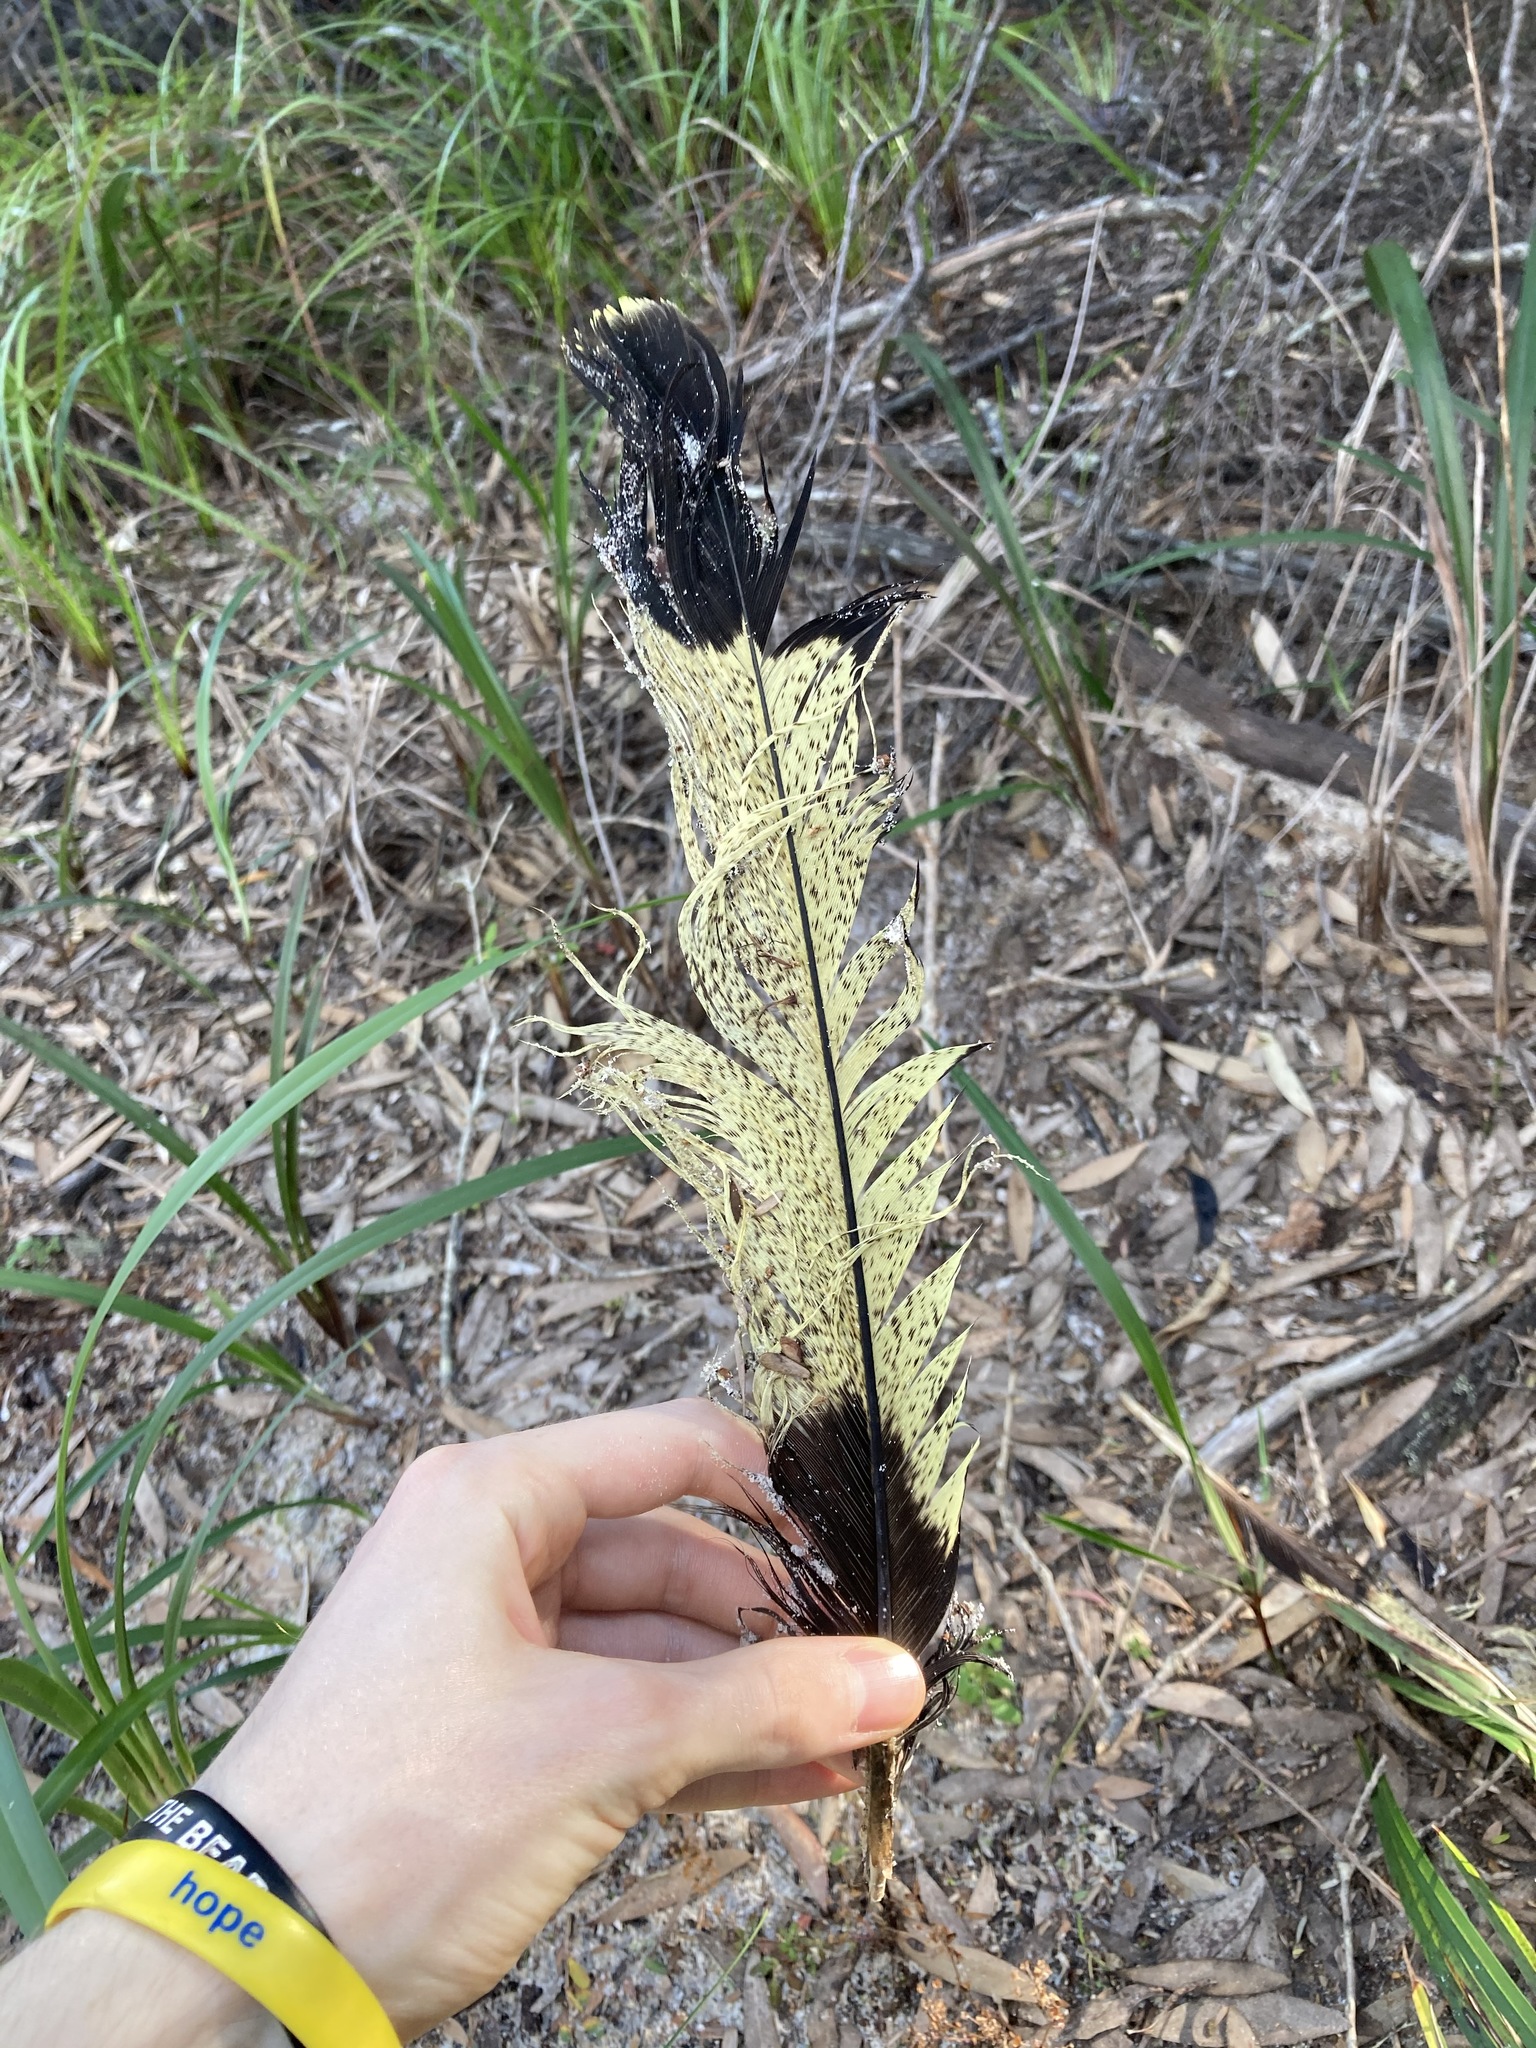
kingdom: Animalia
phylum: Chordata
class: Aves
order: Psittaciformes
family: Cacatuidae
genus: Zanda
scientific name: Zanda funerea
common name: Yellow-tailed black-cockatoo
